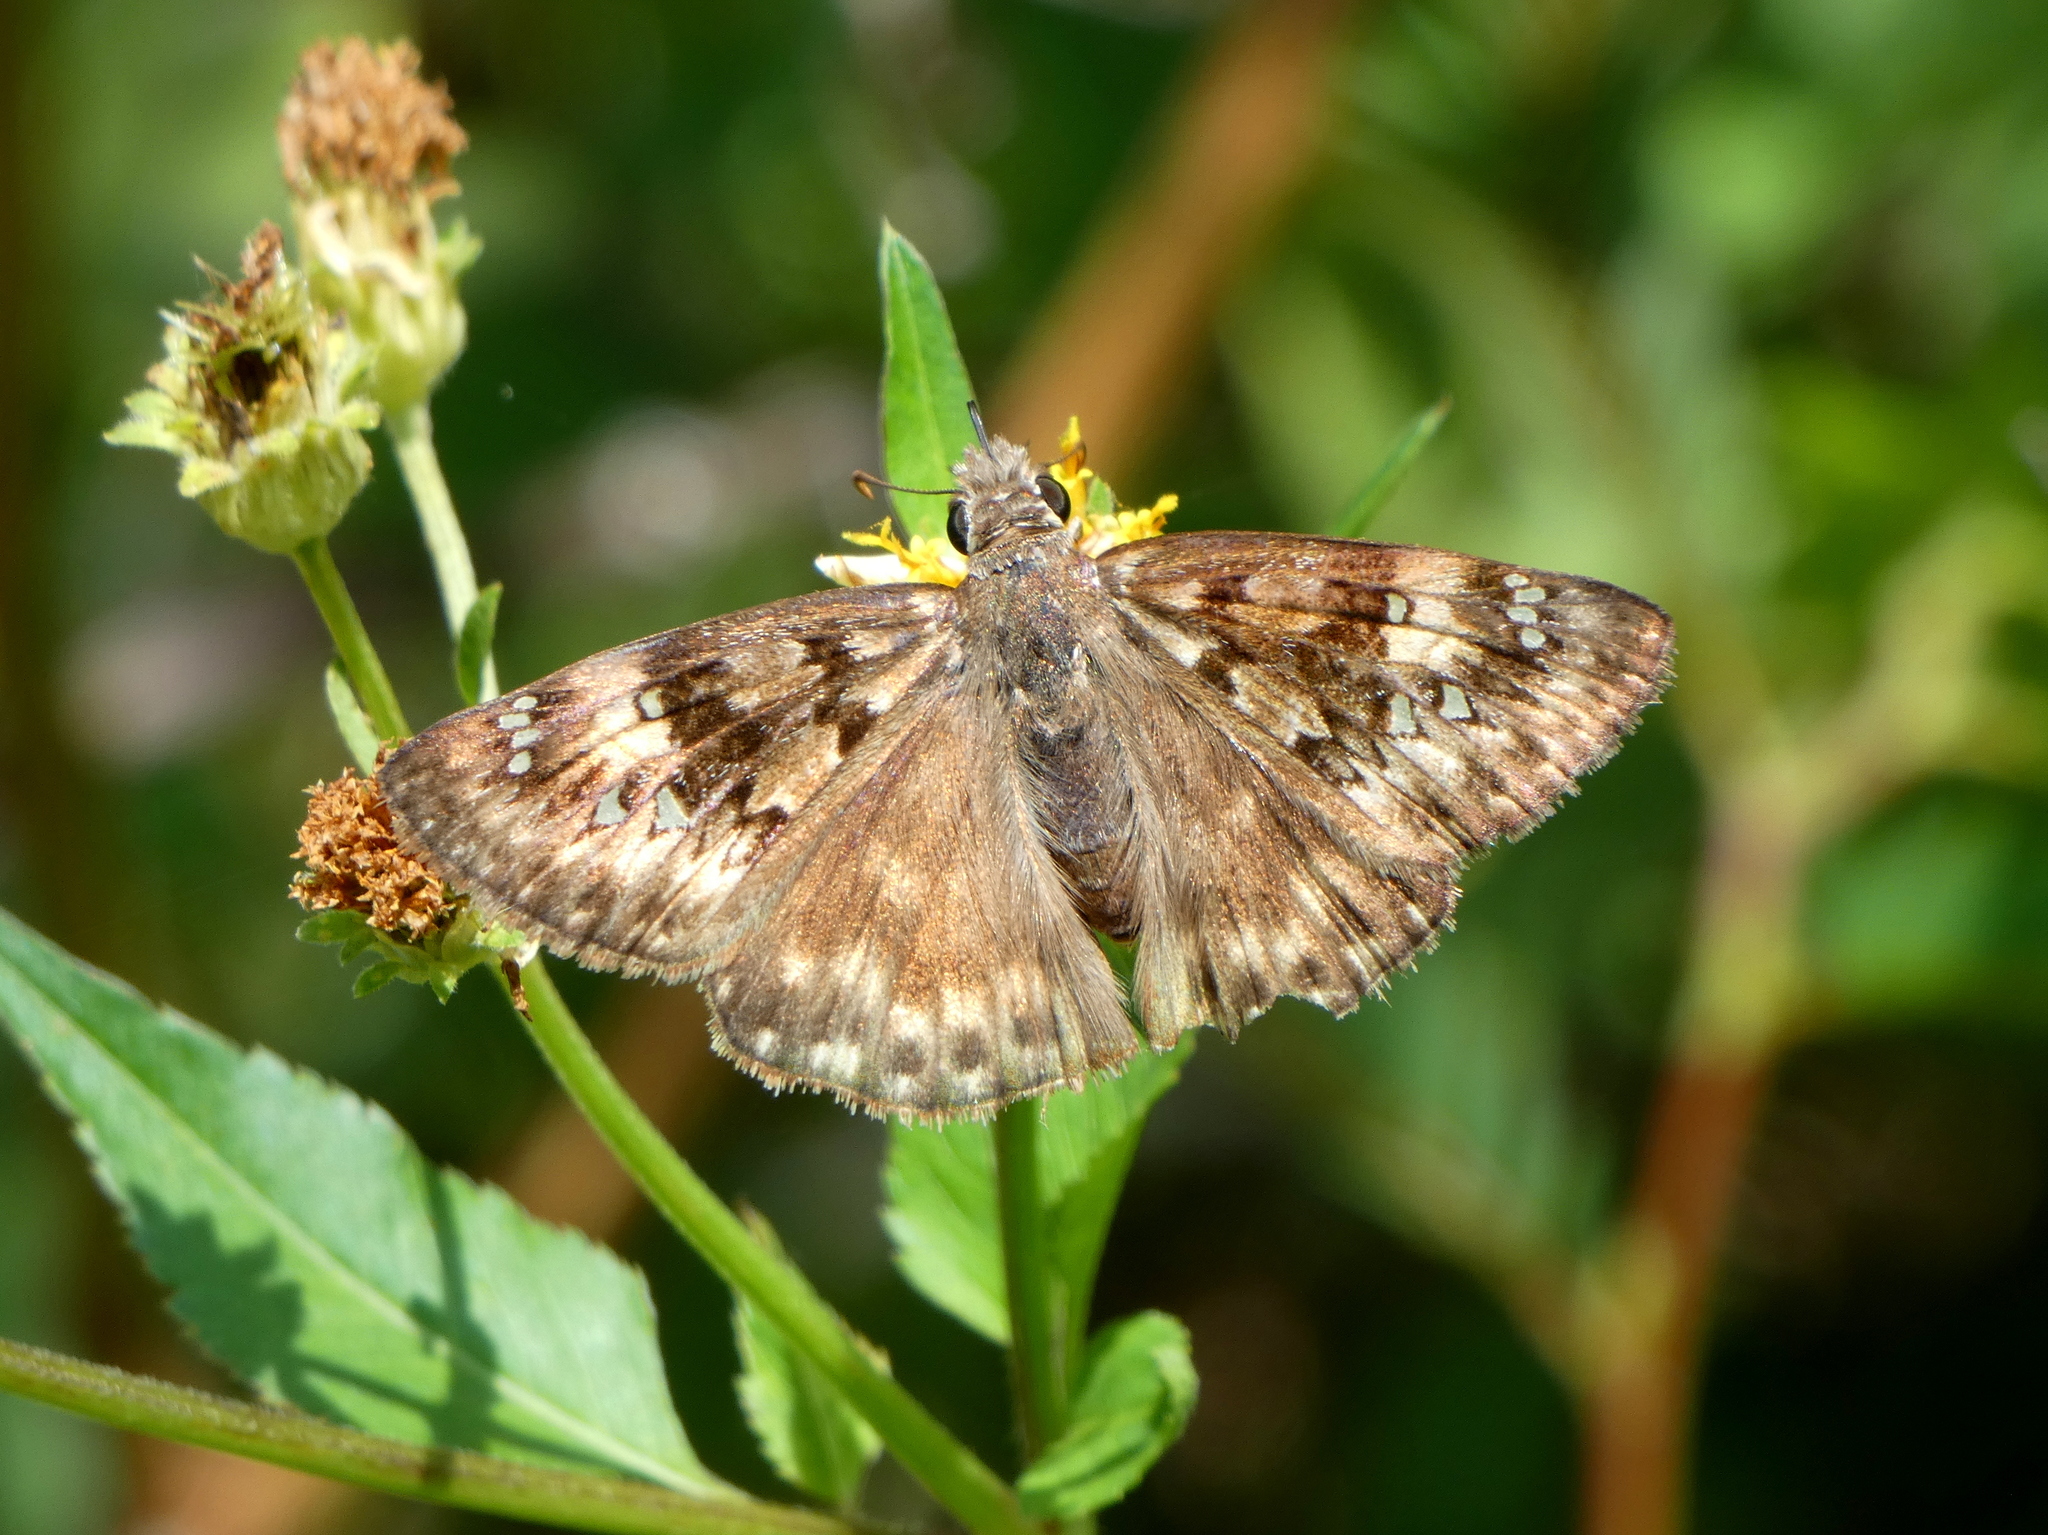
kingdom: Animalia
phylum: Arthropoda
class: Insecta
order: Lepidoptera
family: Hesperiidae
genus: Erynnis
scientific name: Erynnis horatius
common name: Horace's duskywing
